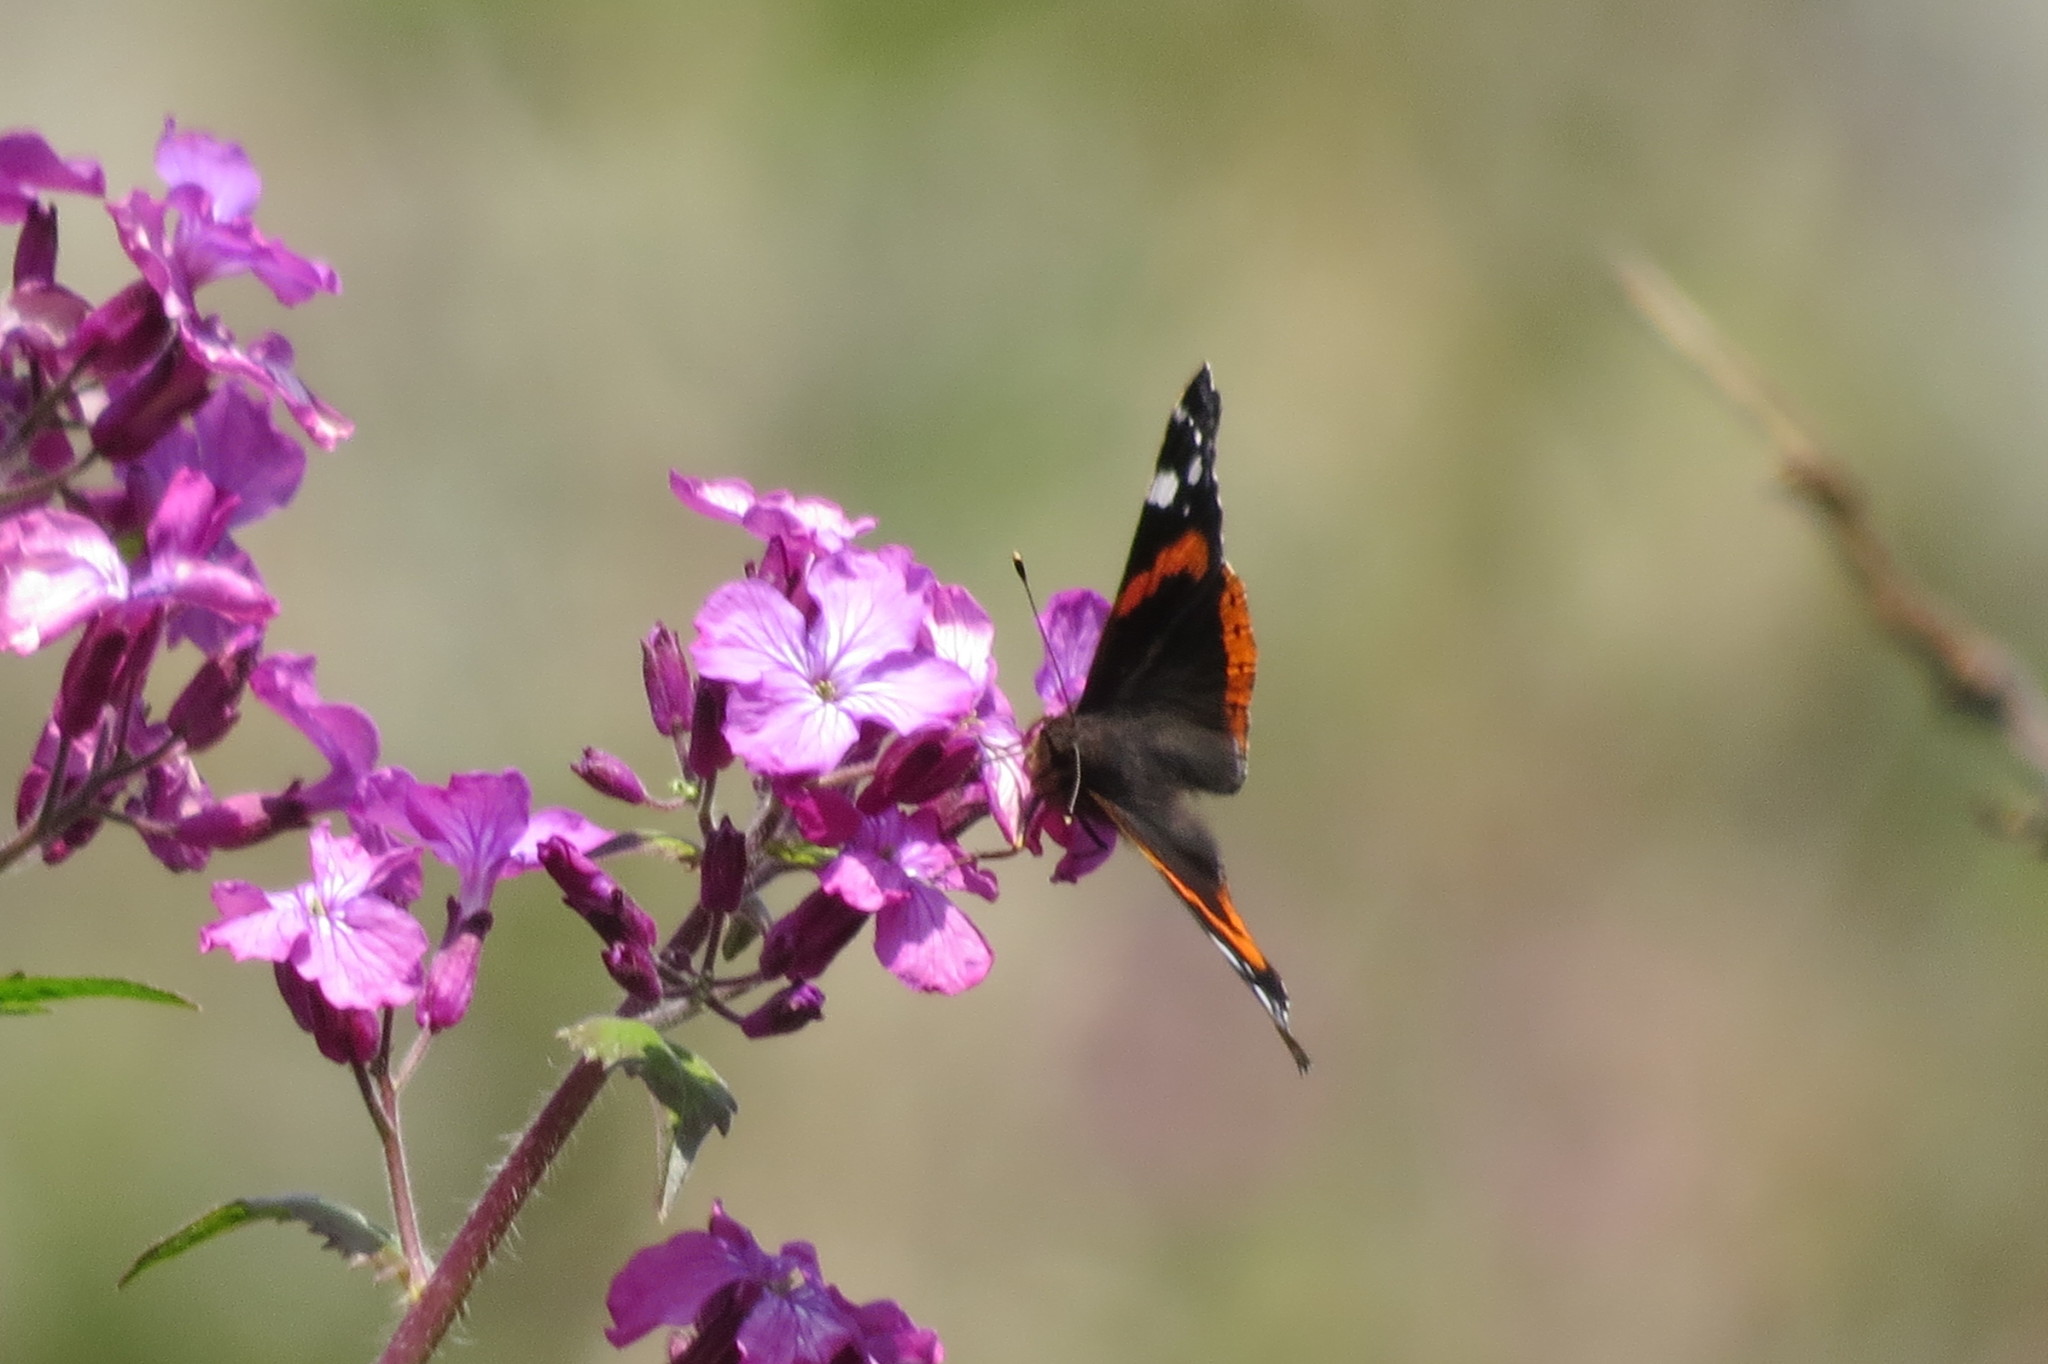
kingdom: Animalia
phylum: Arthropoda
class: Insecta
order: Lepidoptera
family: Nymphalidae
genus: Vanessa
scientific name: Vanessa atalanta
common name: Red admiral
